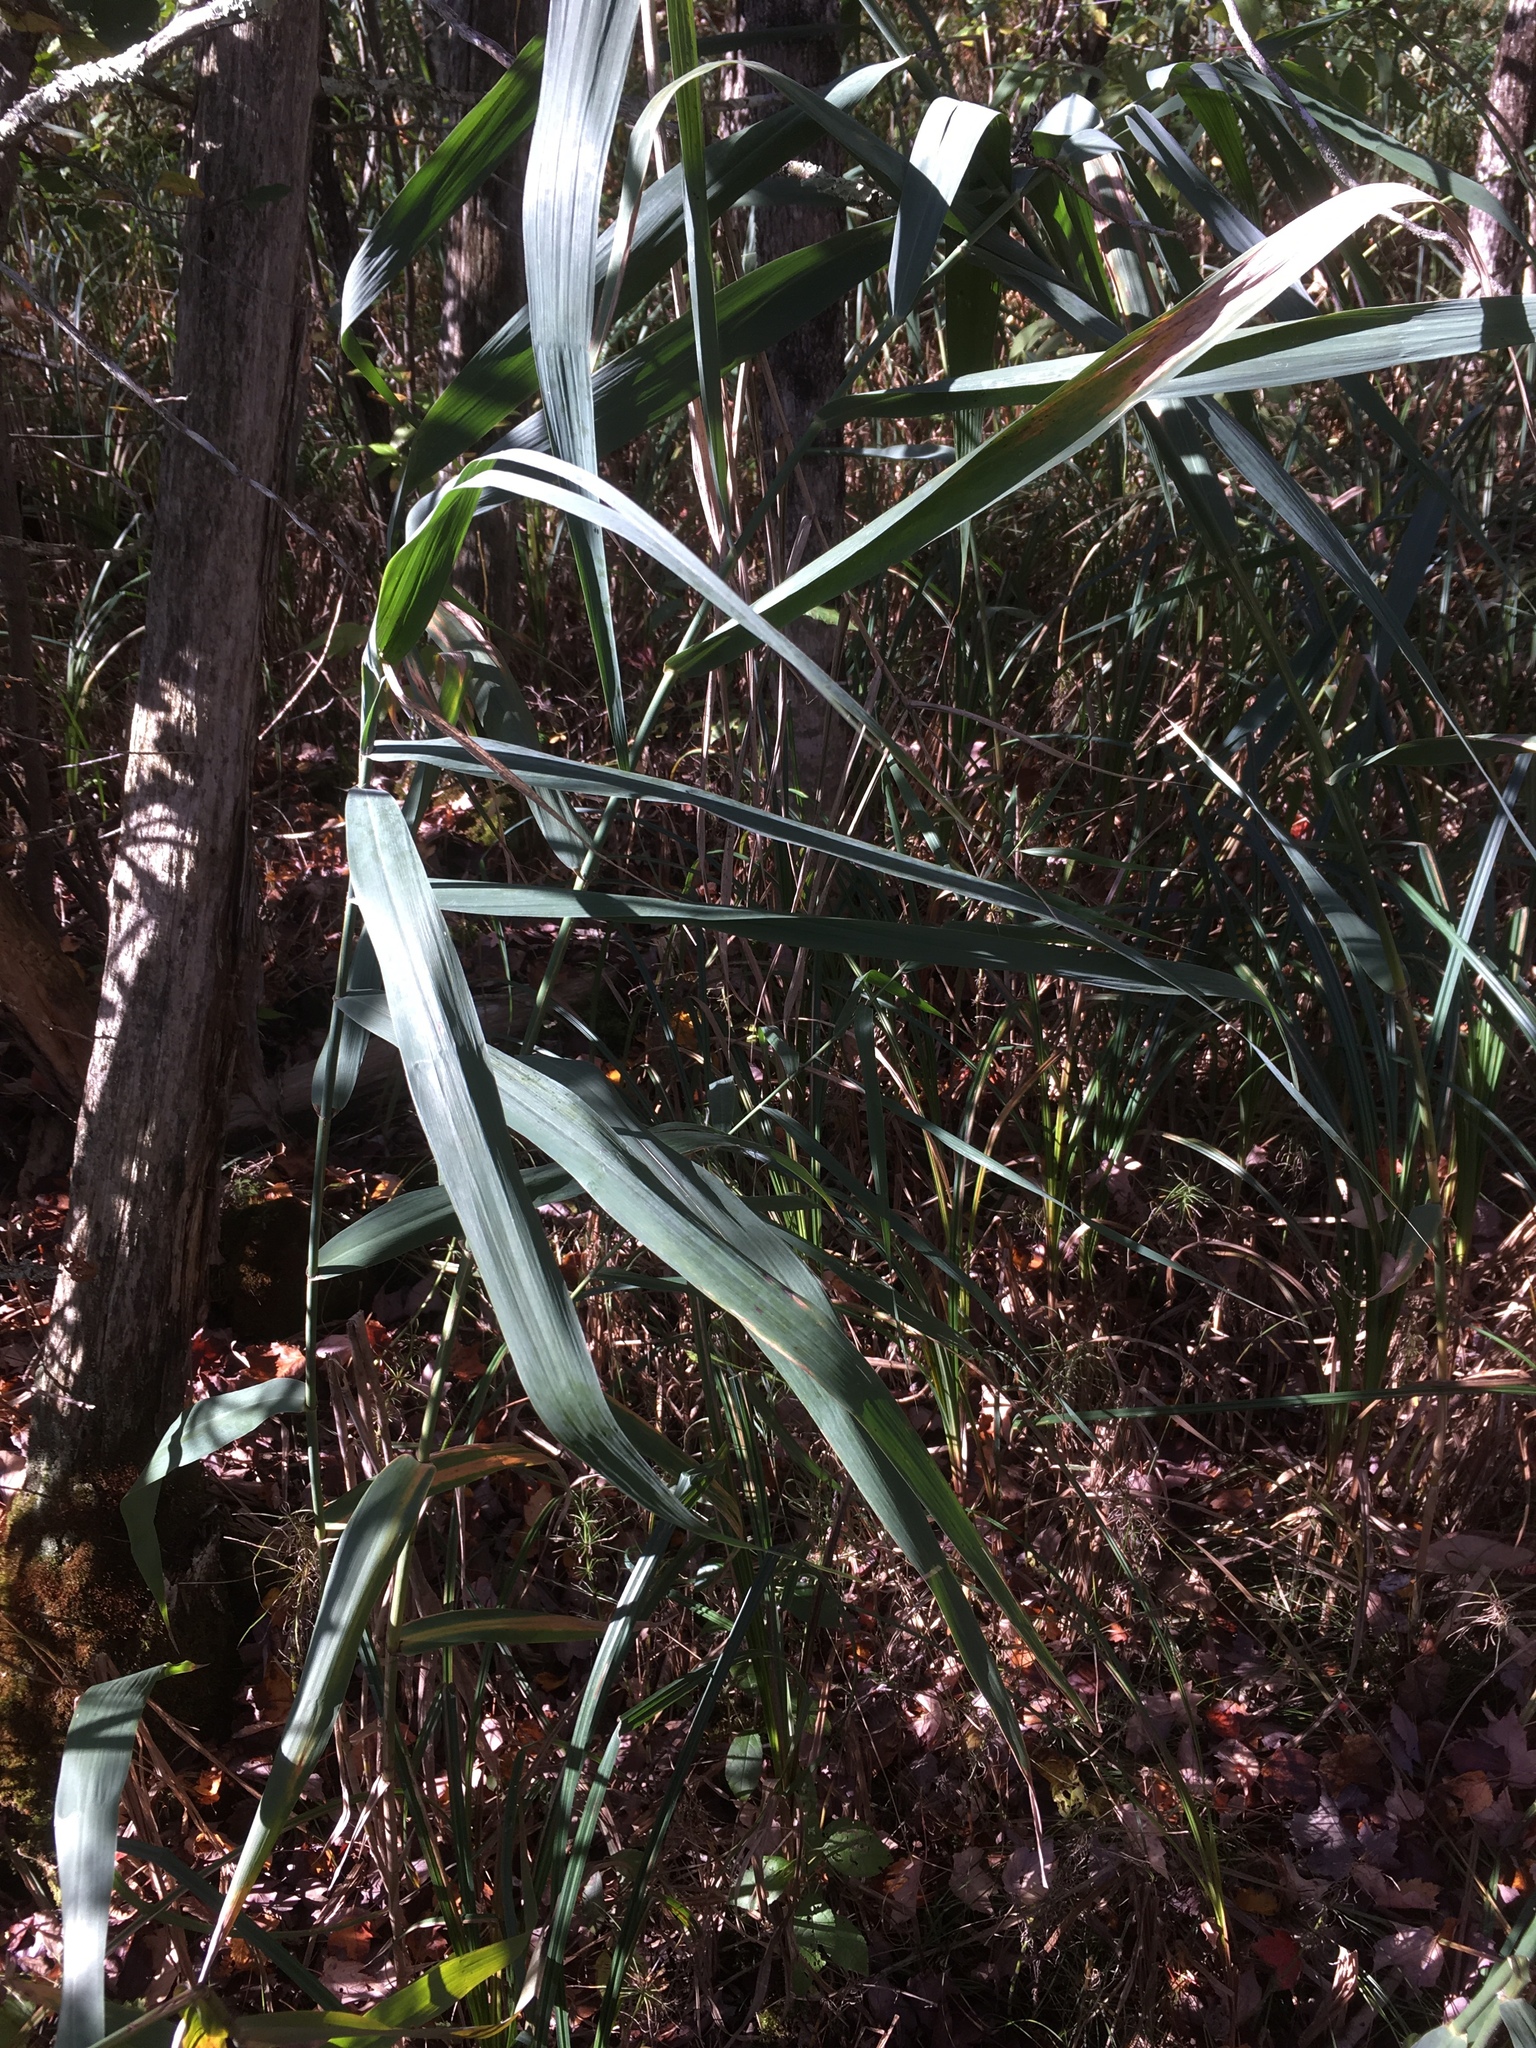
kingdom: Plantae
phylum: Tracheophyta
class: Liliopsida
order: Poales
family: Poaceae
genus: Phragmites
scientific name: Phragmites australis
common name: Common reed
